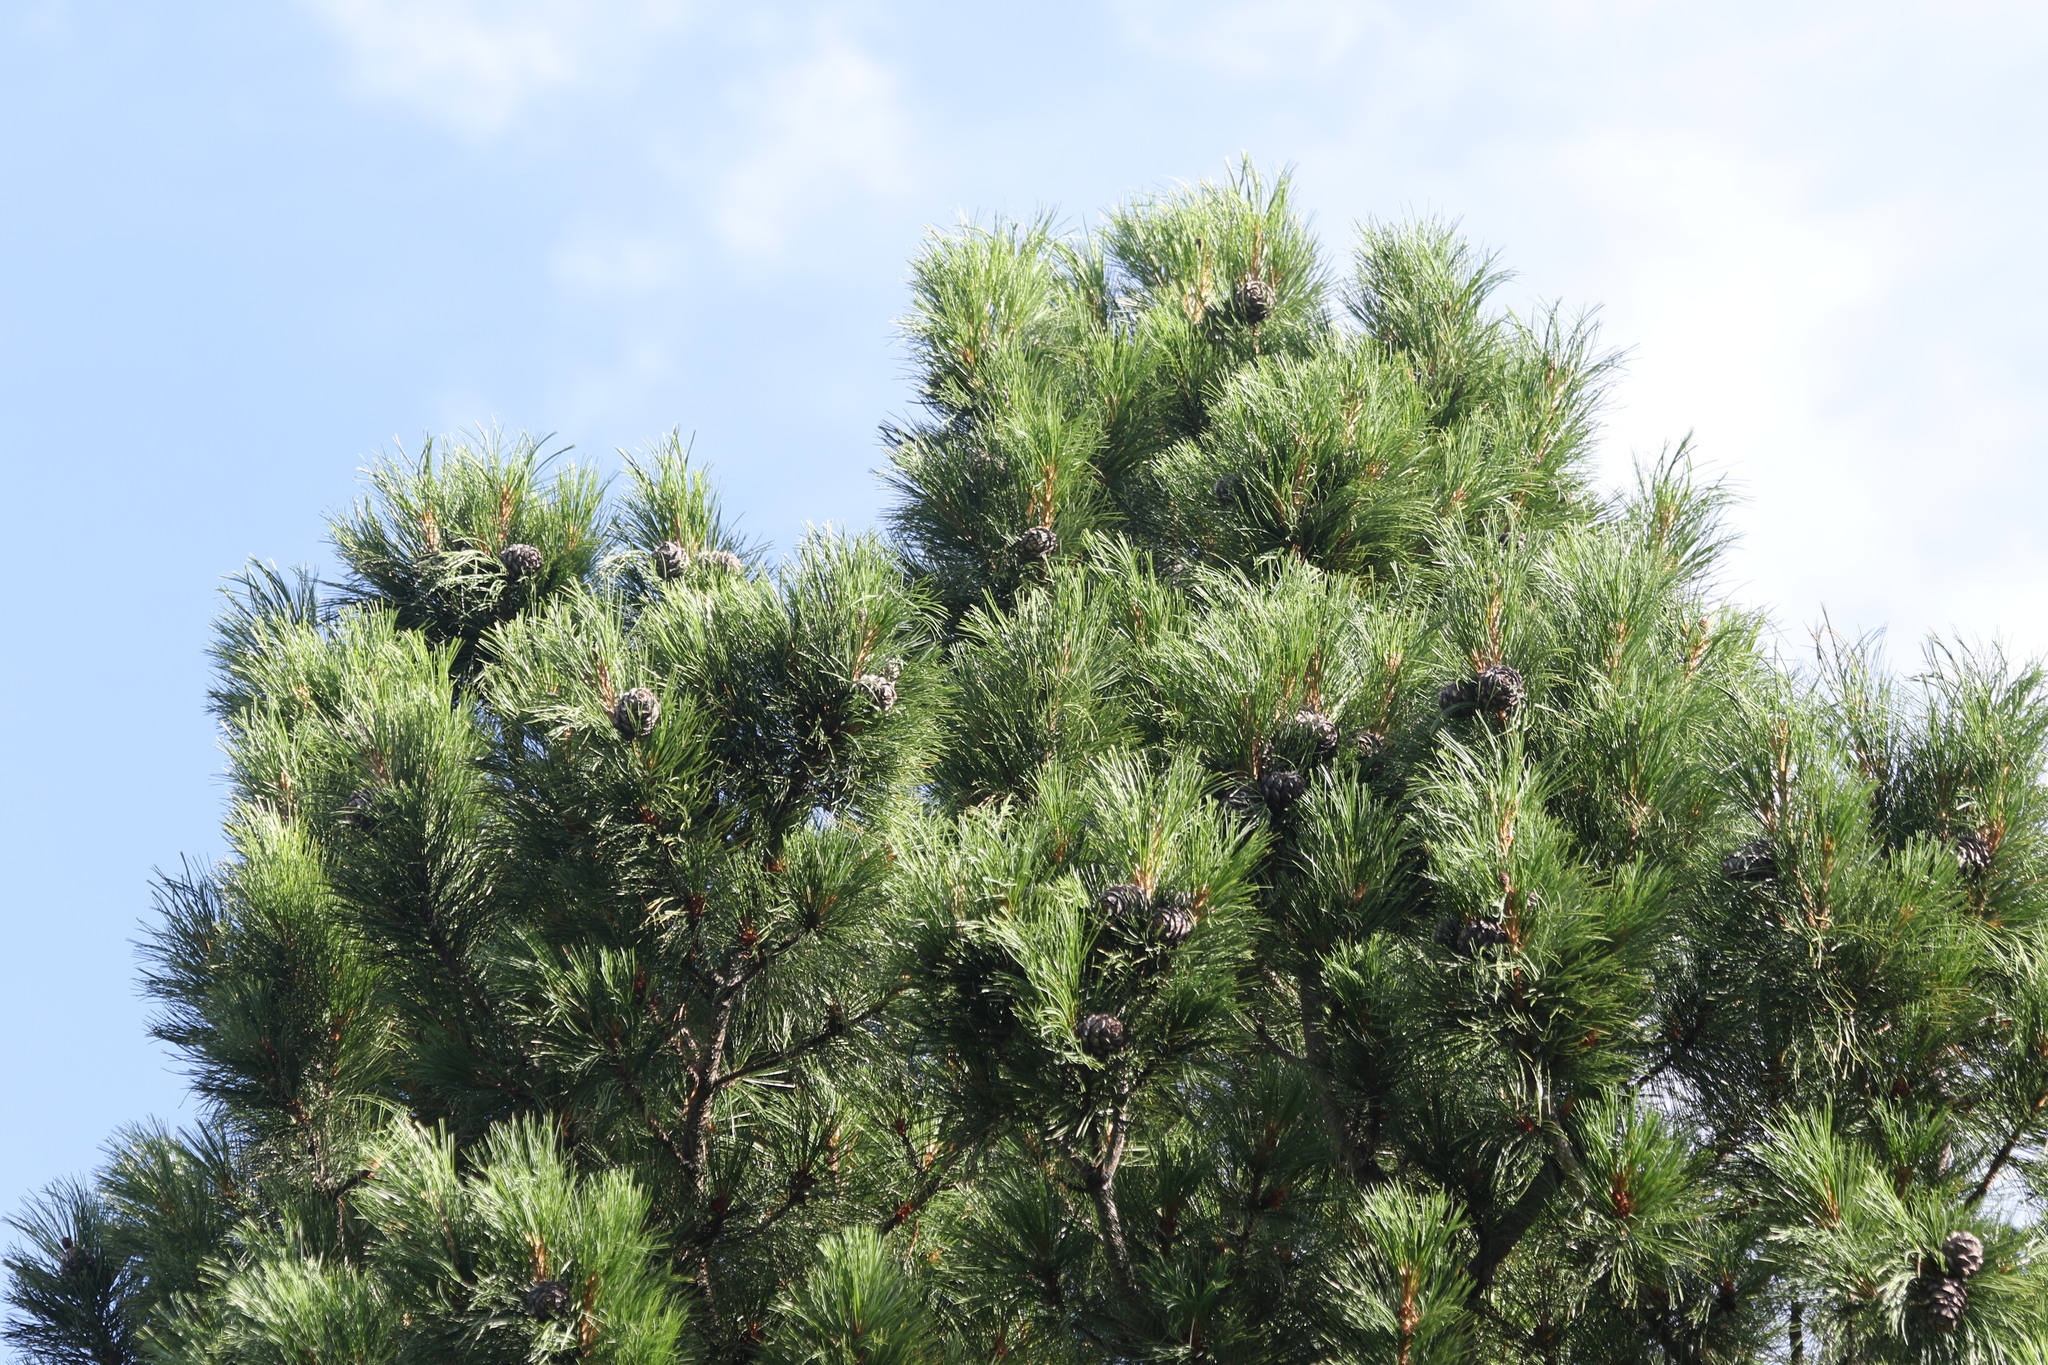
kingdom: Plantae
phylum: Tracheophyta
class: Pinopsida
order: Pinales
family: Pinaceae
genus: Pinus
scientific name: Pinus sibirica
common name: Siberian pine
